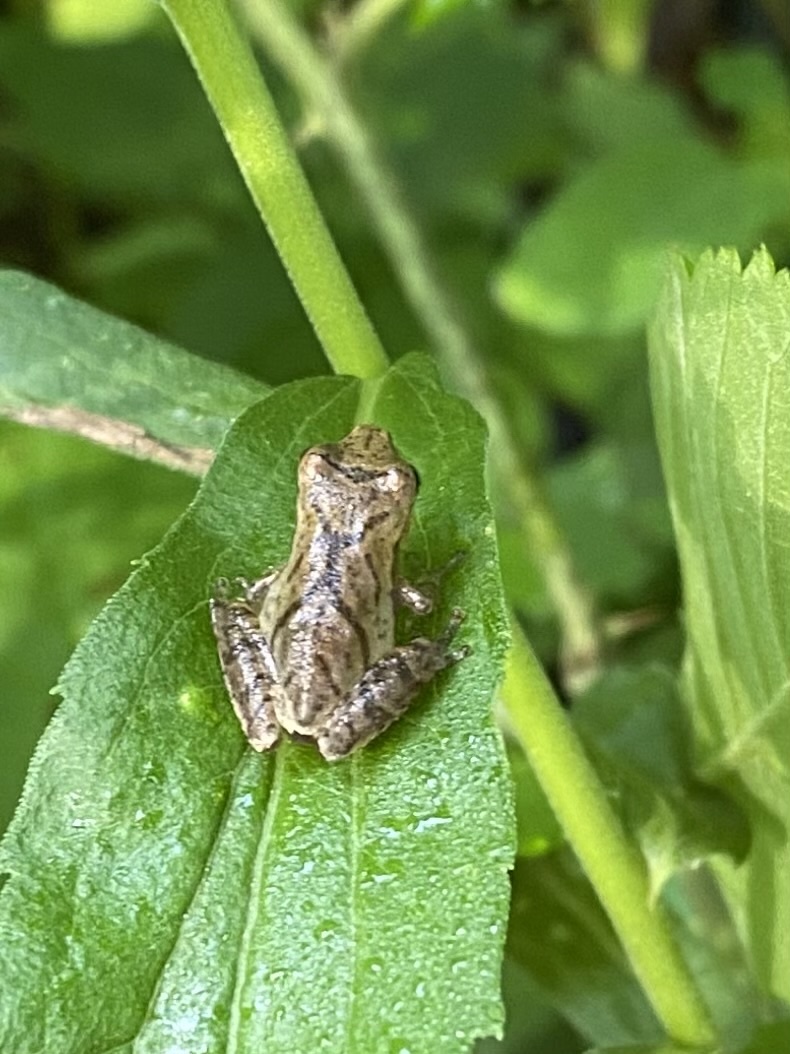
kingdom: Animalia
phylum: Chordata
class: Amphibia
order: Anura
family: Hylidae
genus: Pseudacris
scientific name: Pseudacris crucifer
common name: Spring peeper
